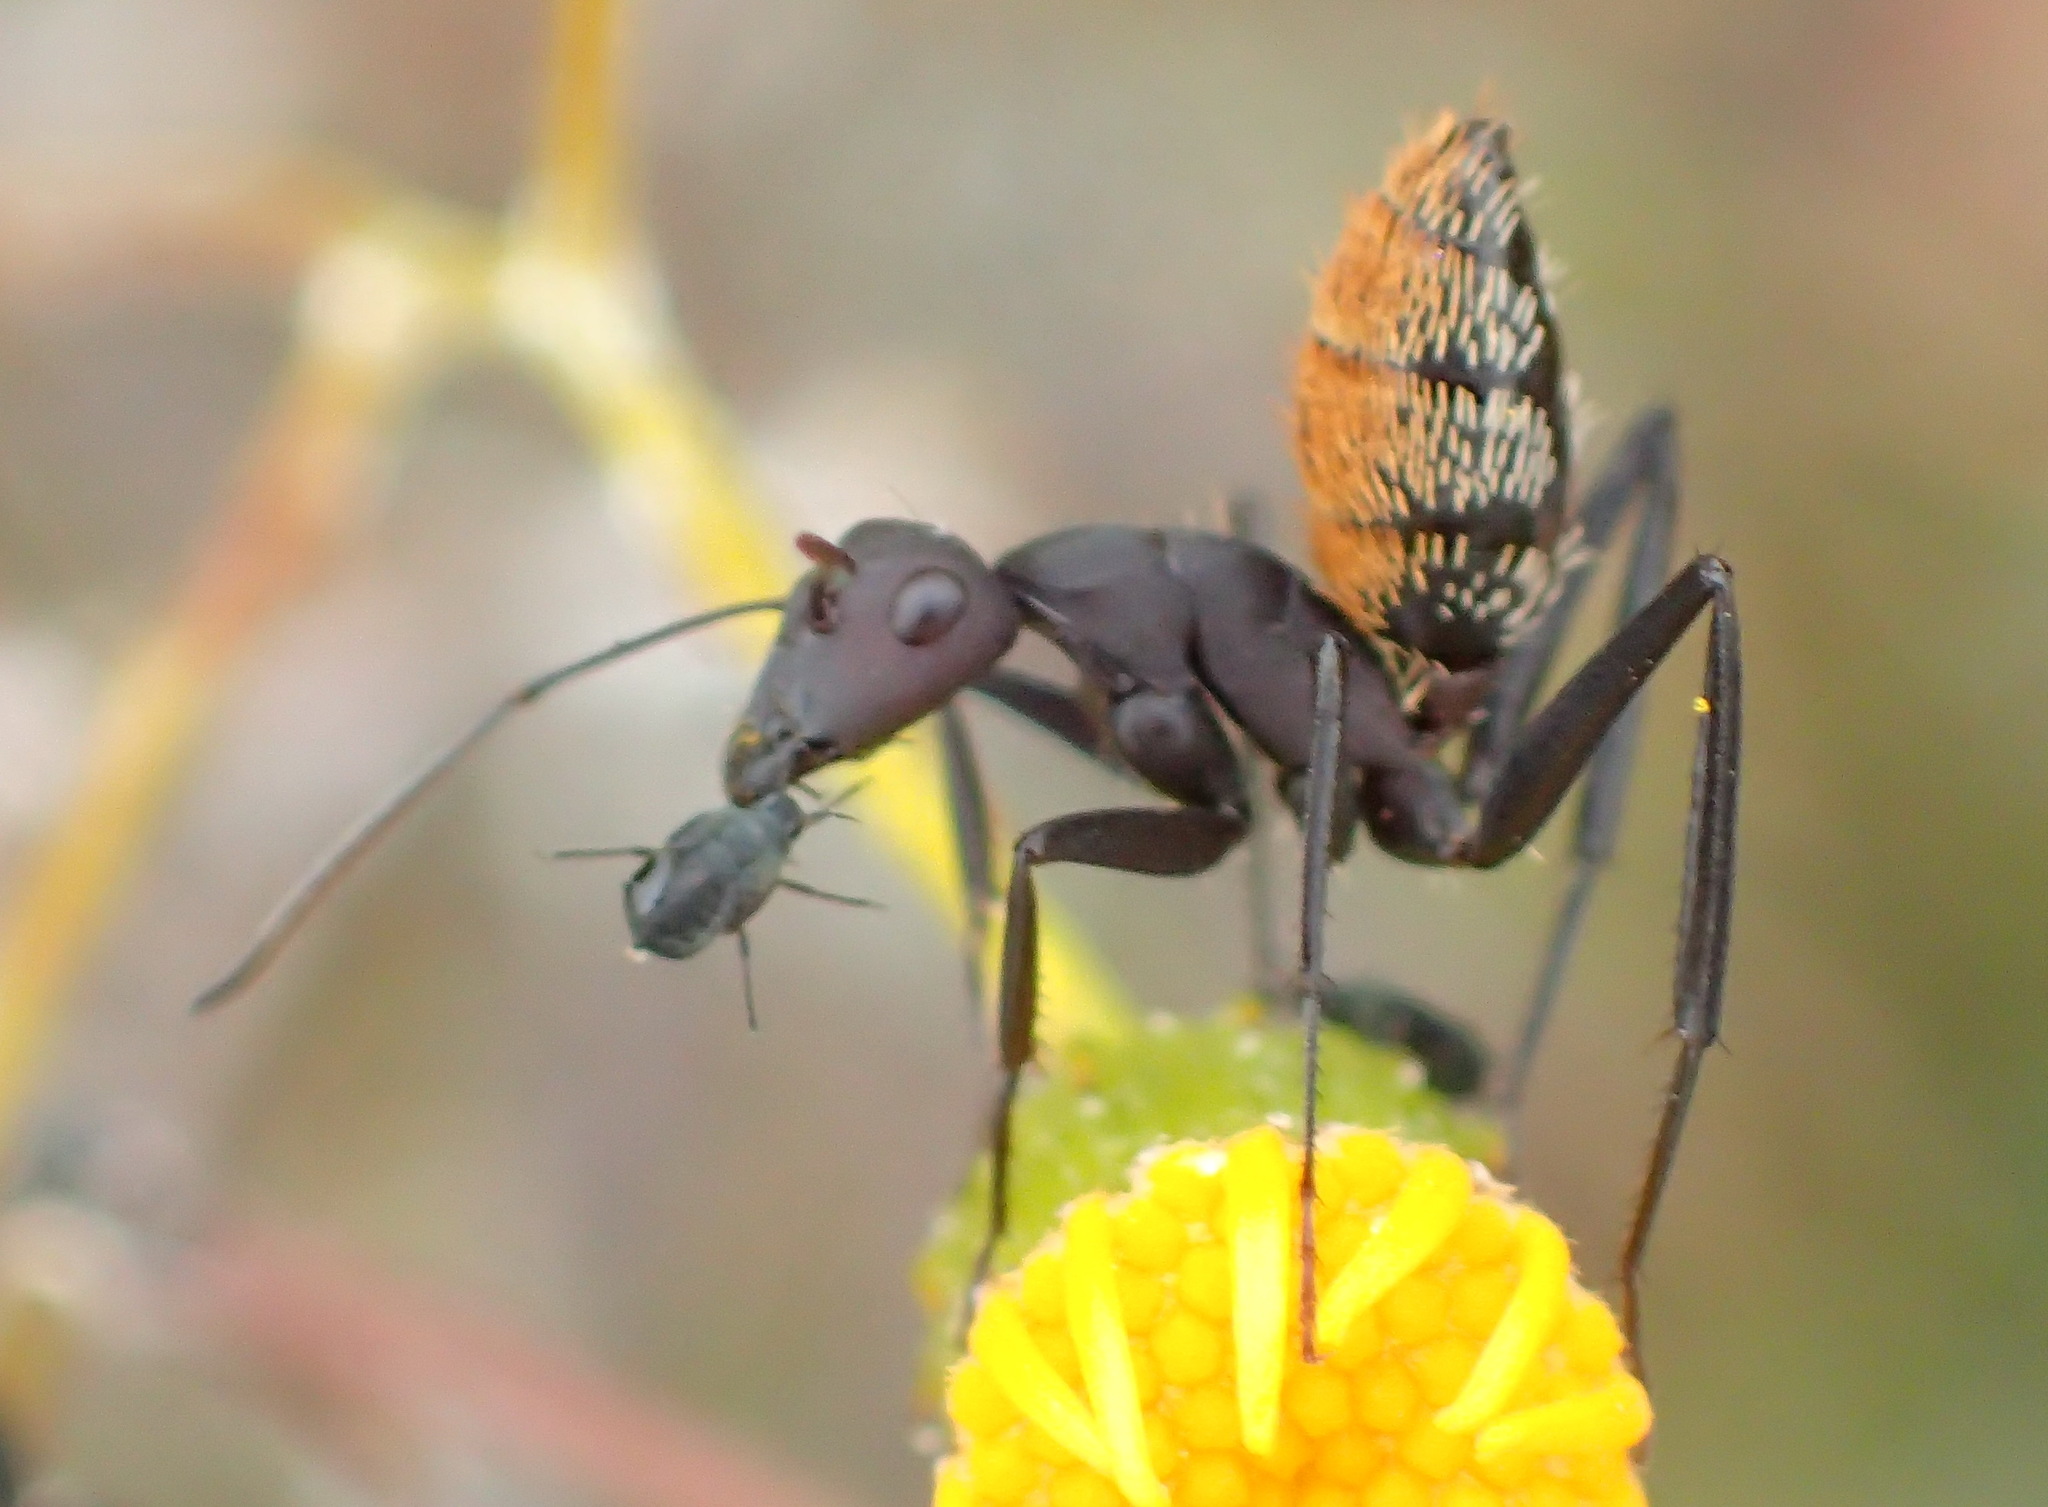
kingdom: Animalia
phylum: Arthropoda
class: Insecta
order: Hymenoptera
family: Formicidae
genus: Camponotus
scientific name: Camponotus storeatus
